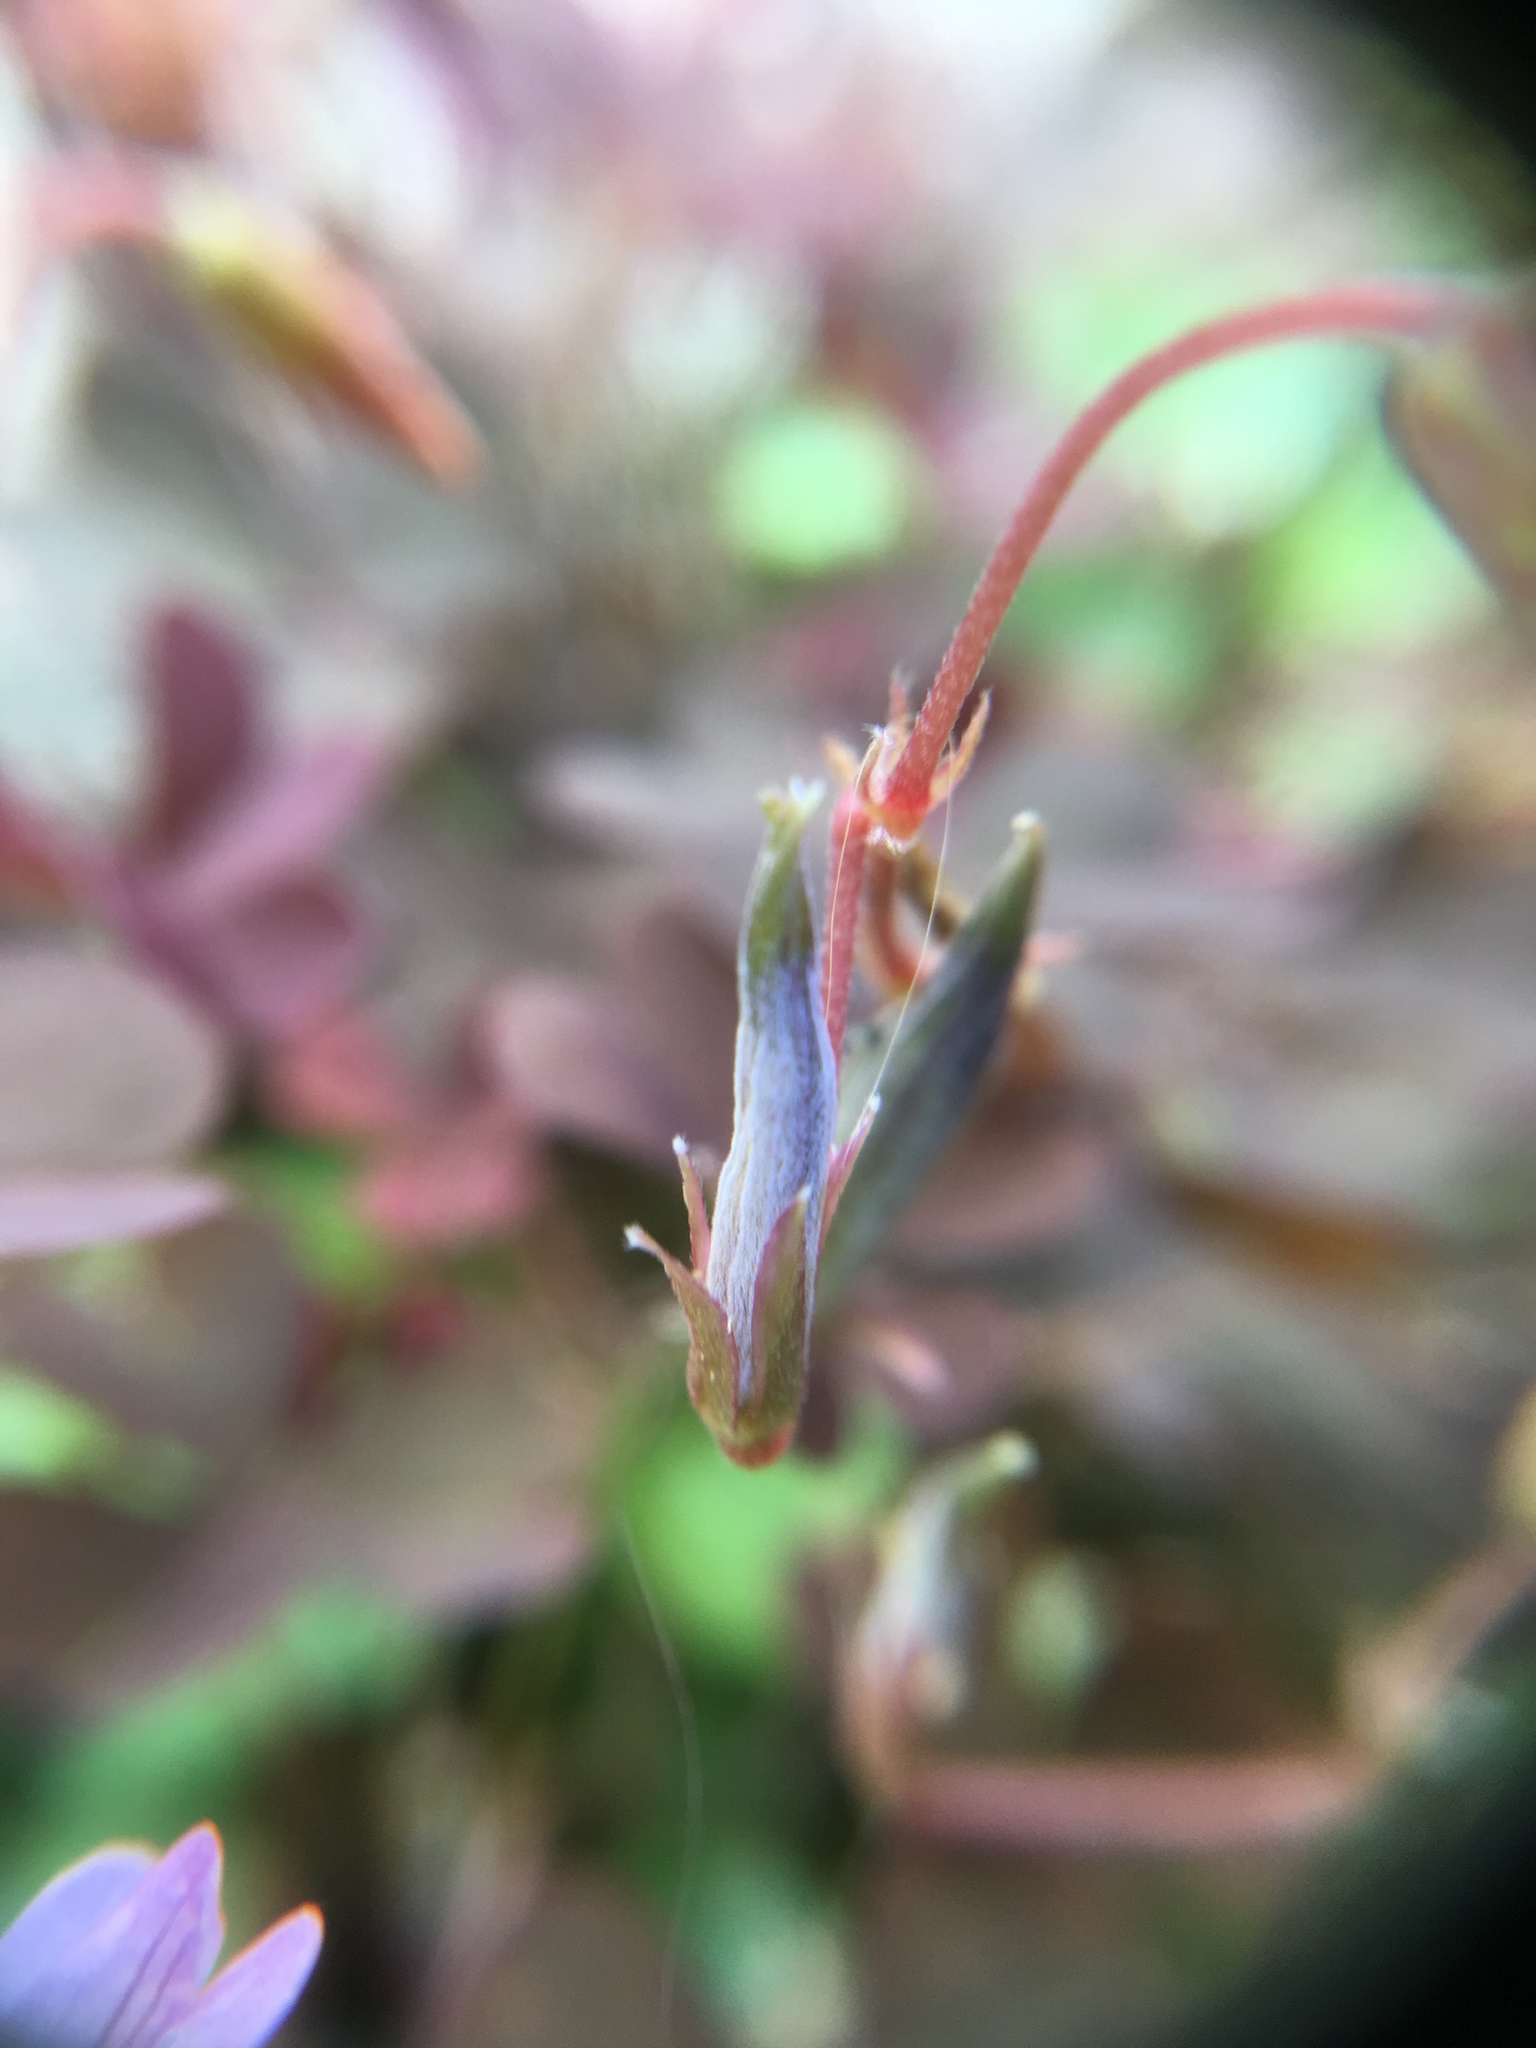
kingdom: Plantae
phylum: Tracheophyta
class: Magnoliopsida
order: Oxalidales
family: Oxalidaceae
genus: Oxalis
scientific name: Oxalis corniculata
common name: Procumbent yellow-sorrel
